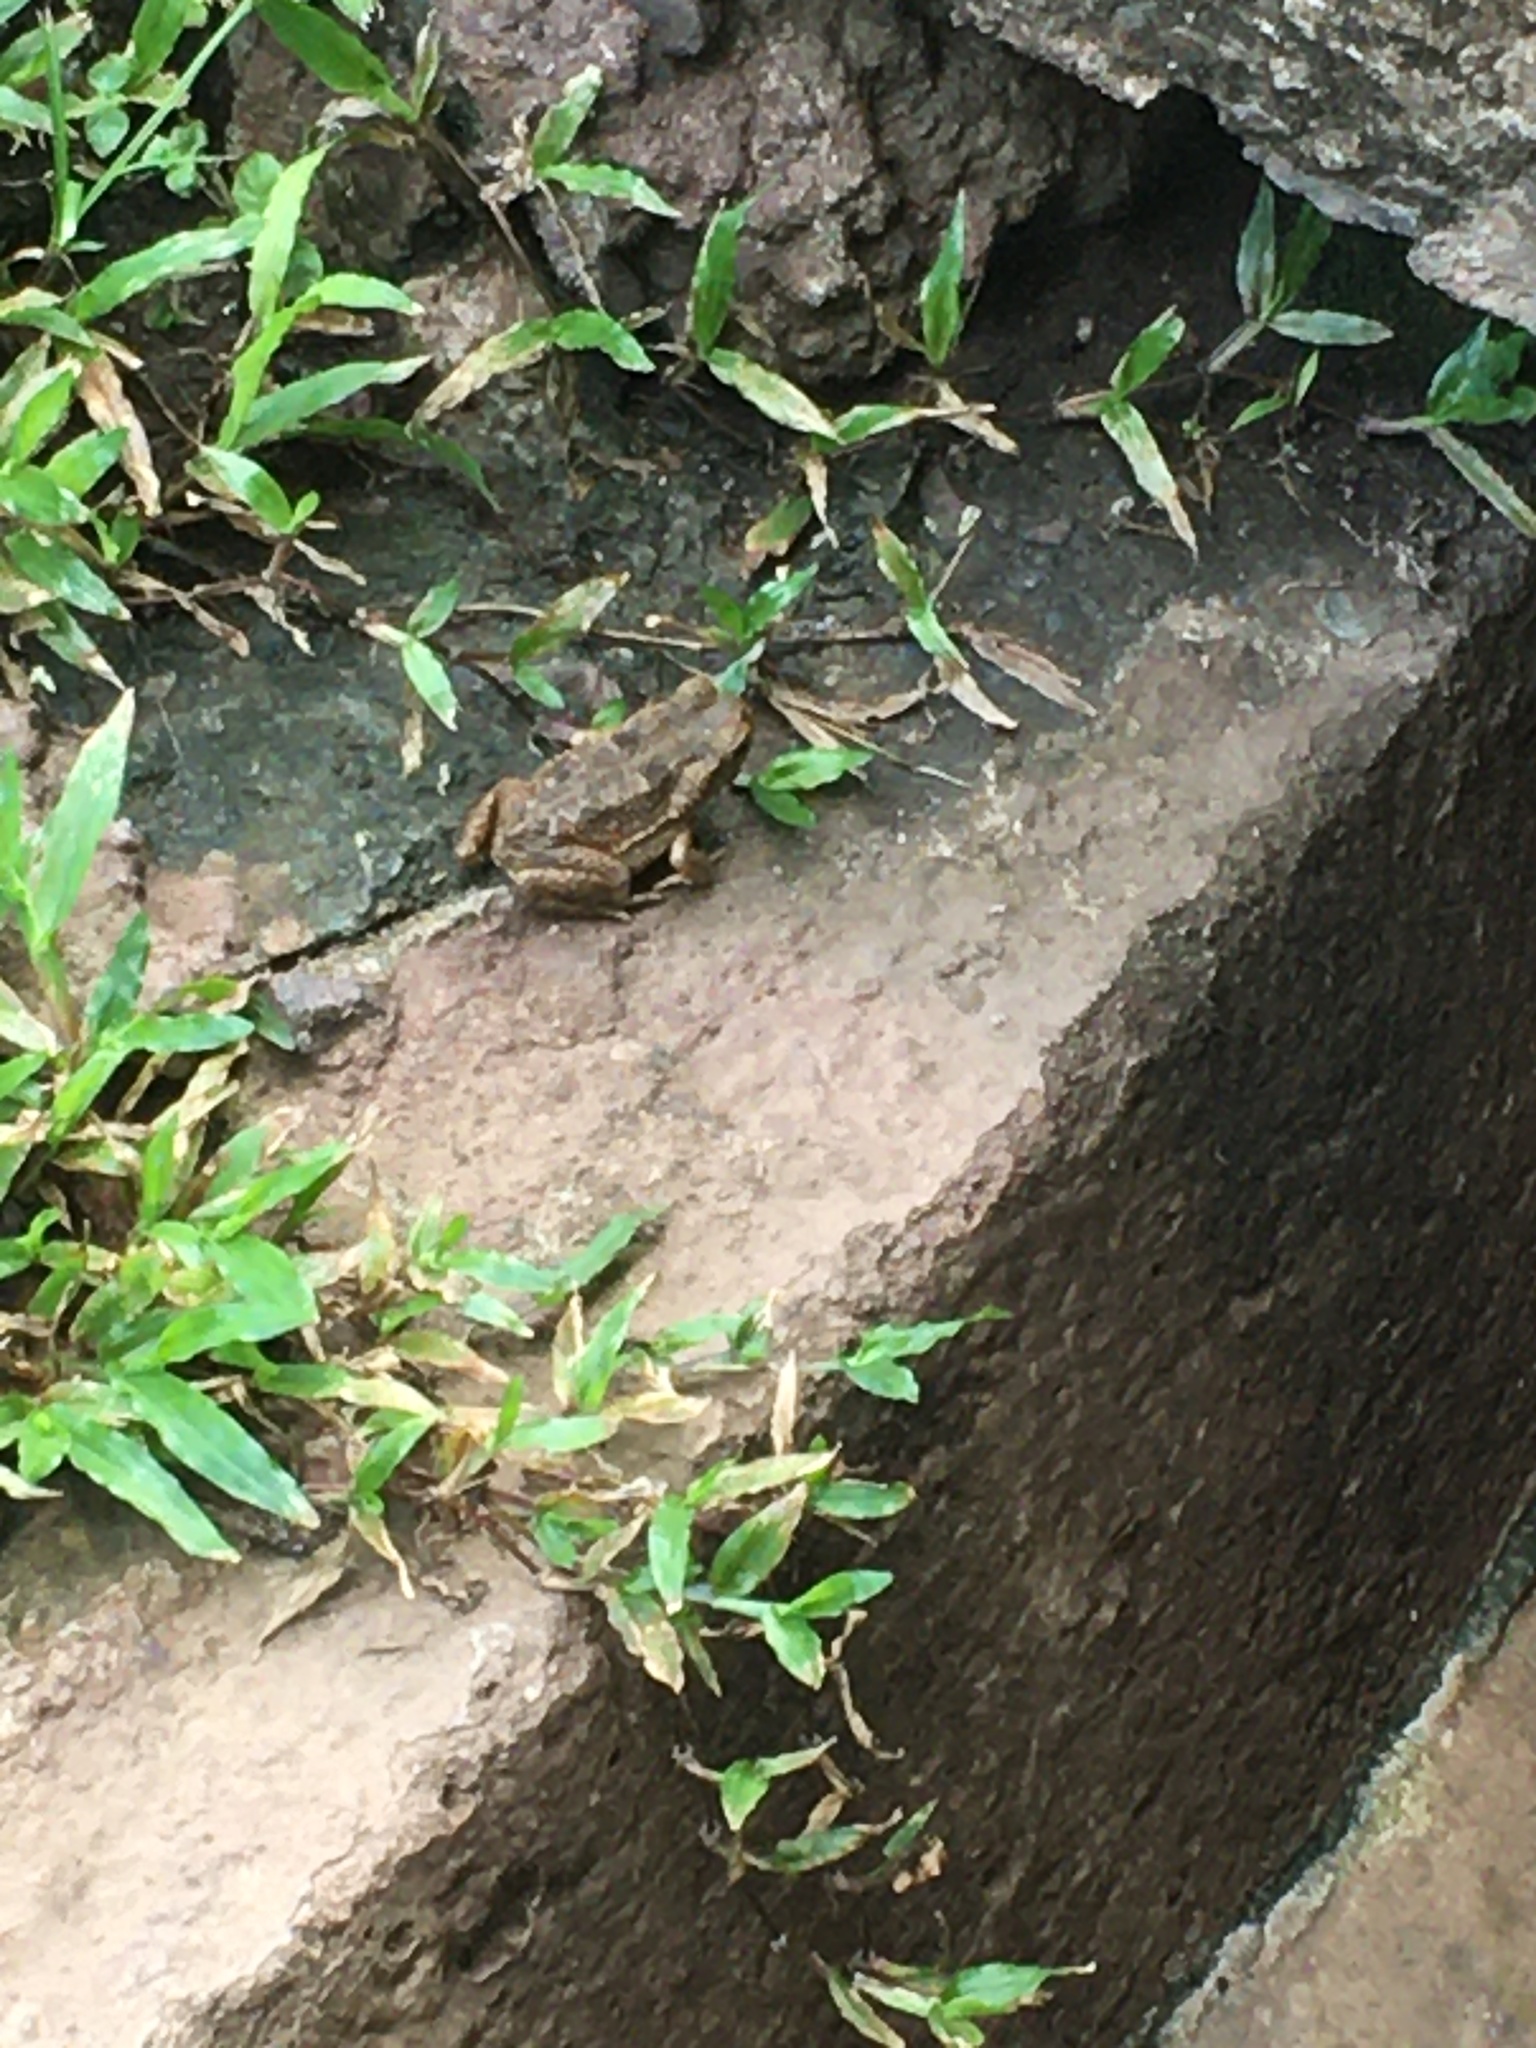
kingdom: Animalia
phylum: Chordata
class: Amphibia
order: Anura
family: Bufonidae
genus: Rhinella
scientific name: Rhinella horribilis
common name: Mesoamerican cane toad
